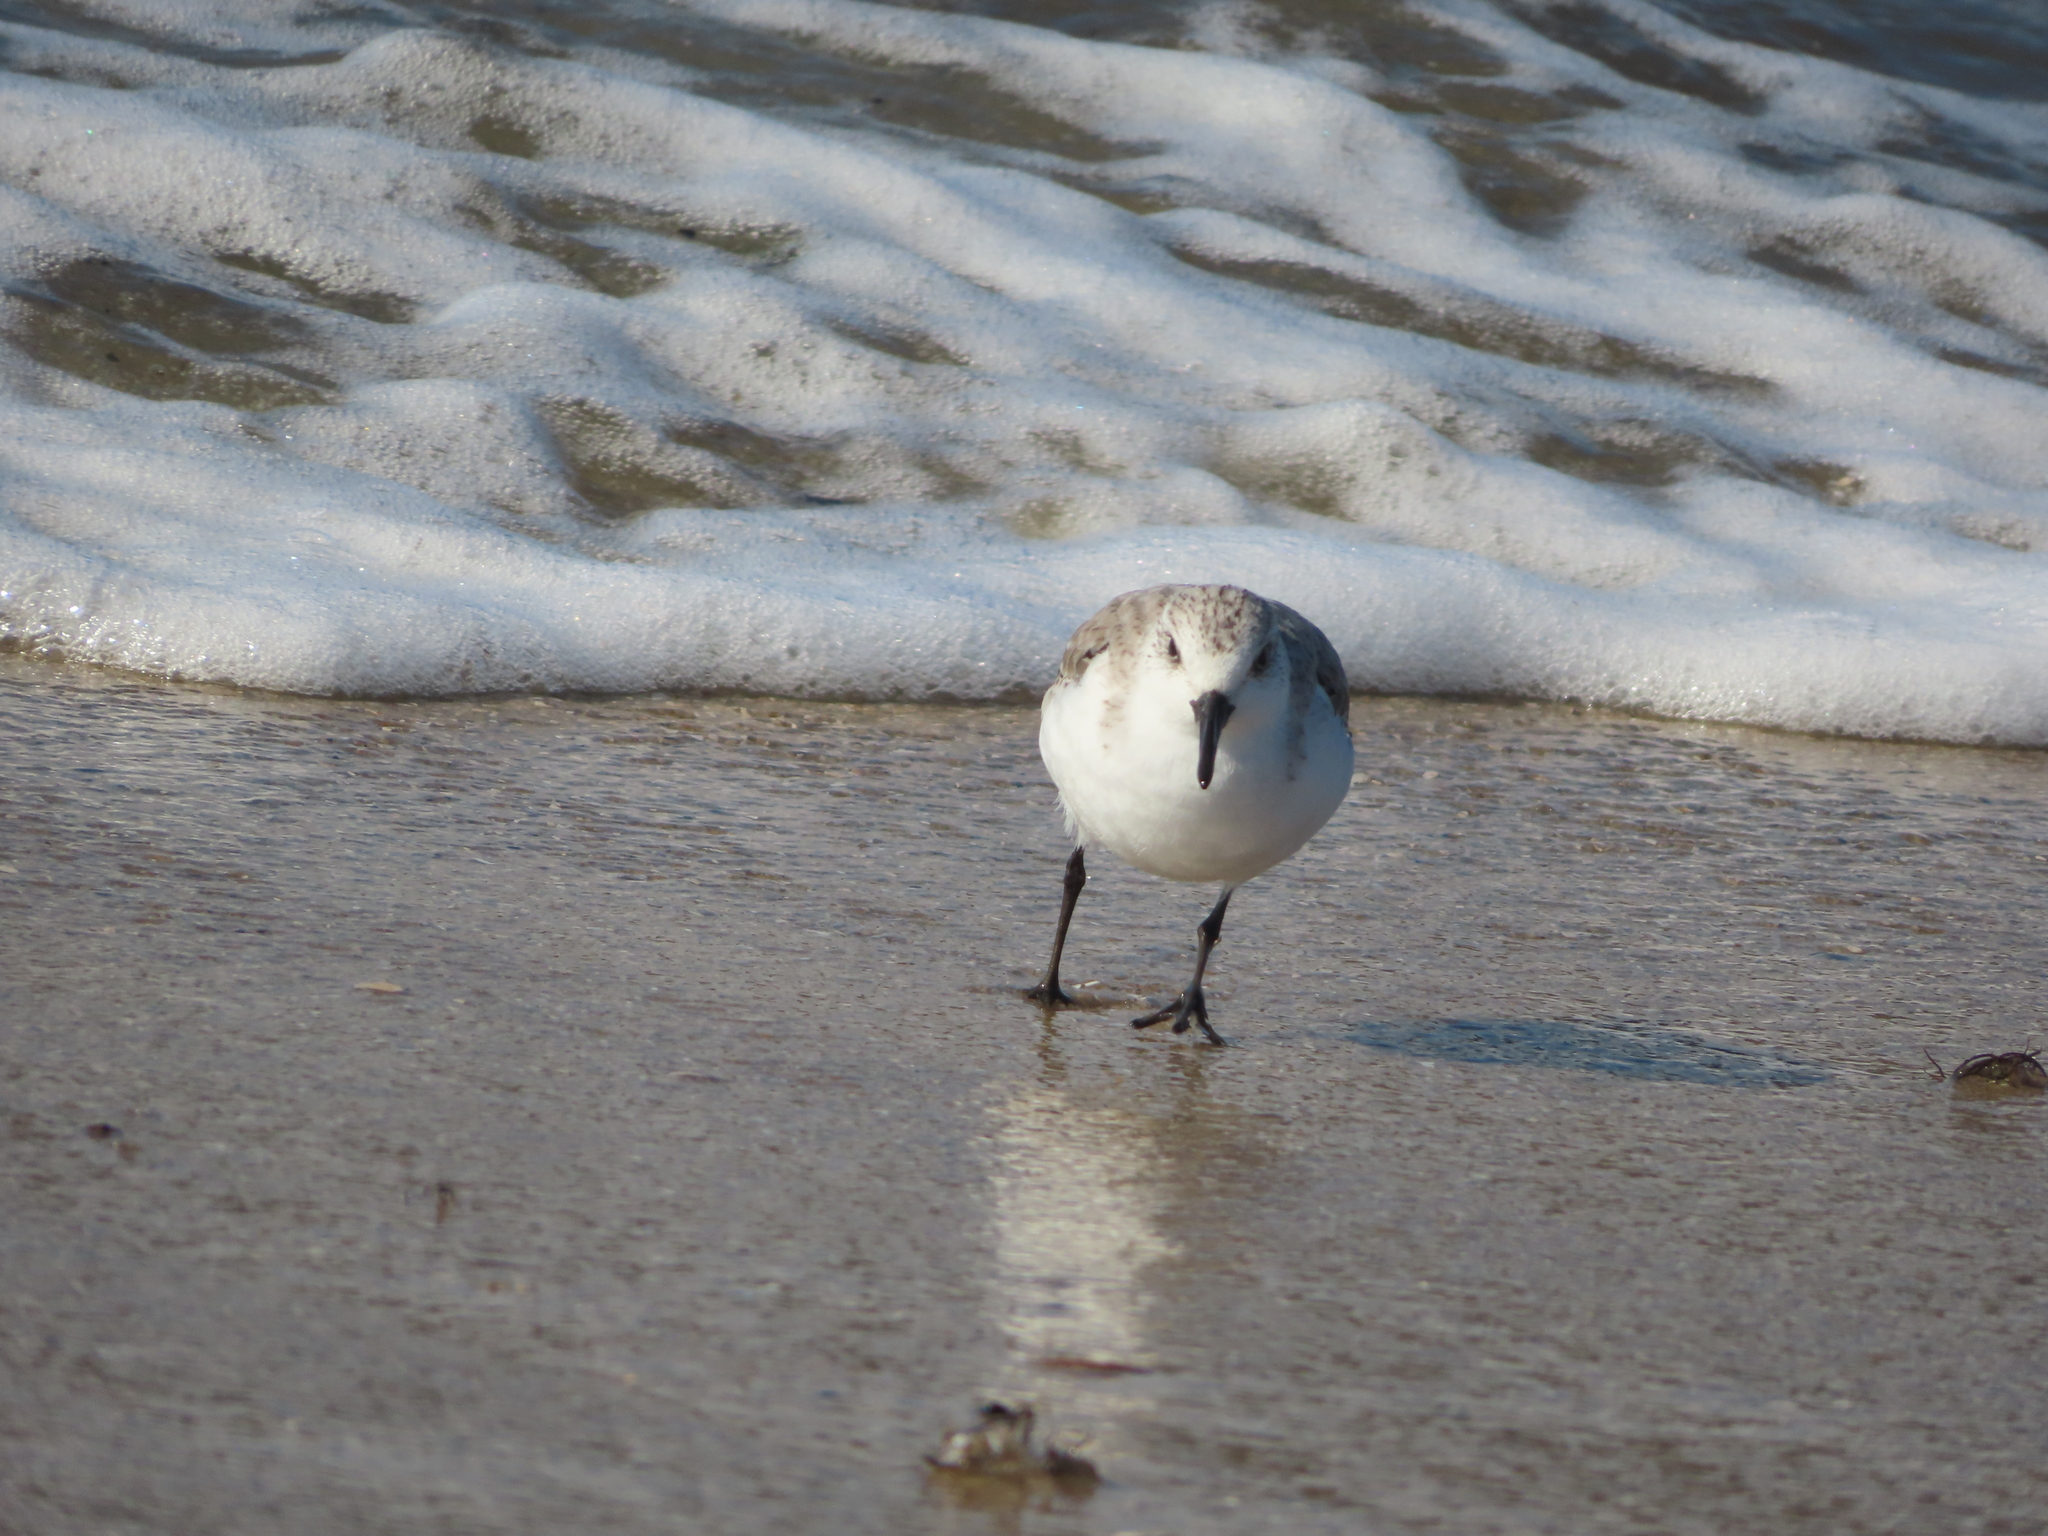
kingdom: Animalia
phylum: Chordata
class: Aves
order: Charadriiformes
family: Scolopacidae
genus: Calidris
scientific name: Calidris alba
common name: Sanderling
